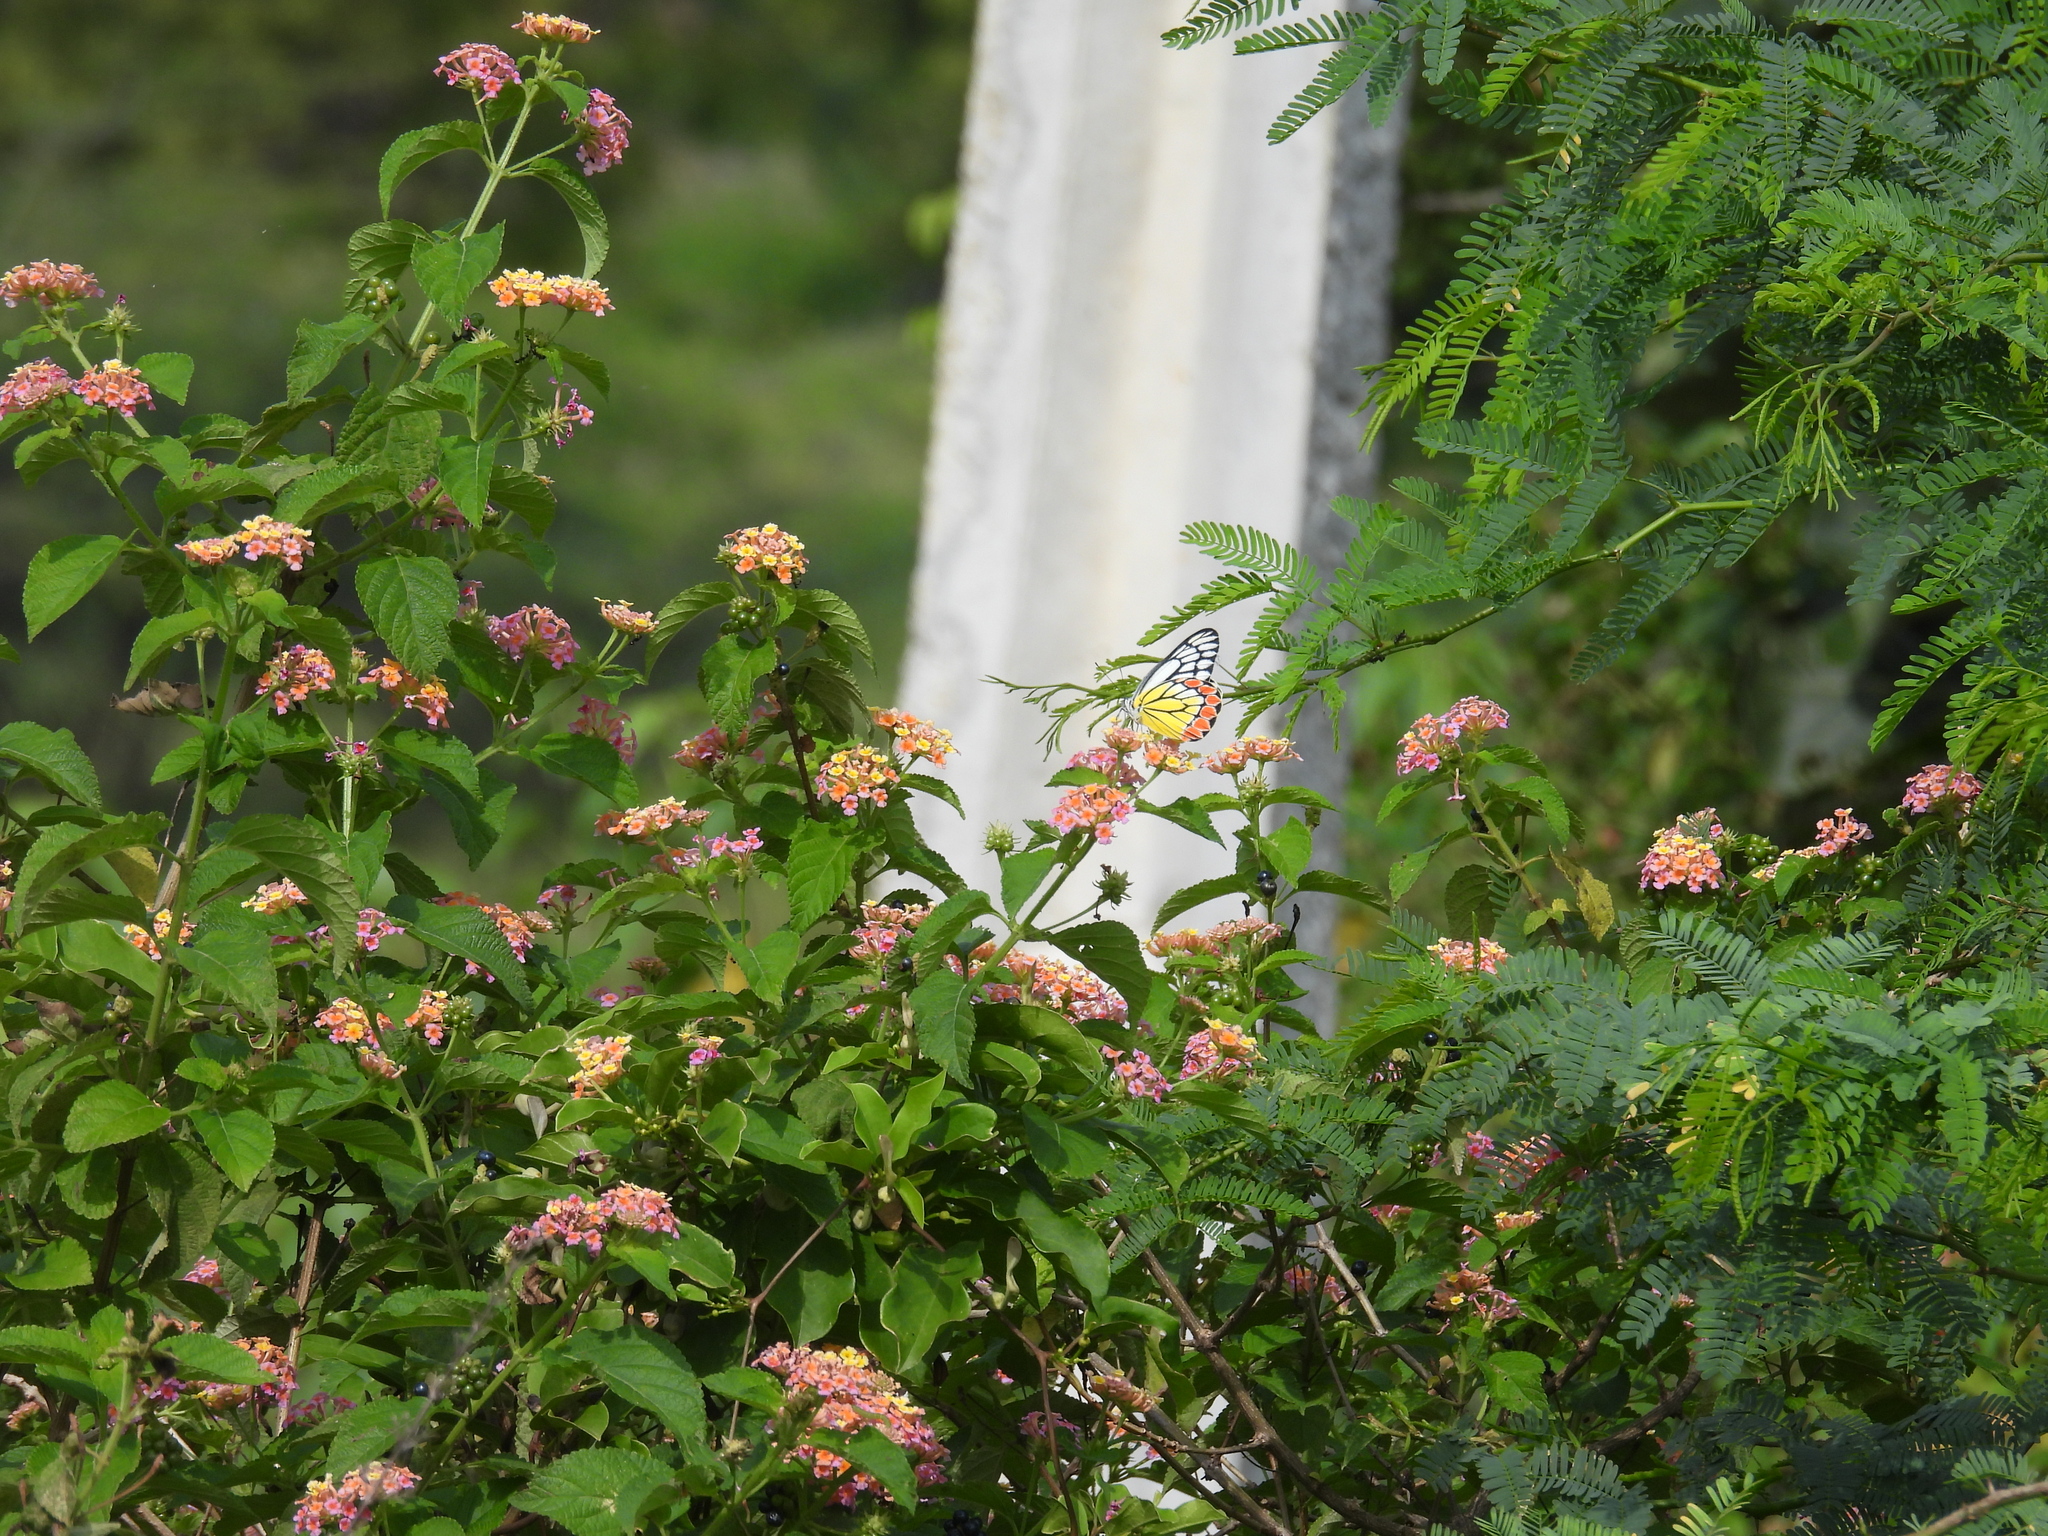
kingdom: Animalia
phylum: Arthropoda
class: Insecta
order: Lepidoptera
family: Pieridae
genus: Delias
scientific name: Delias eucharis
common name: Common jezebel
